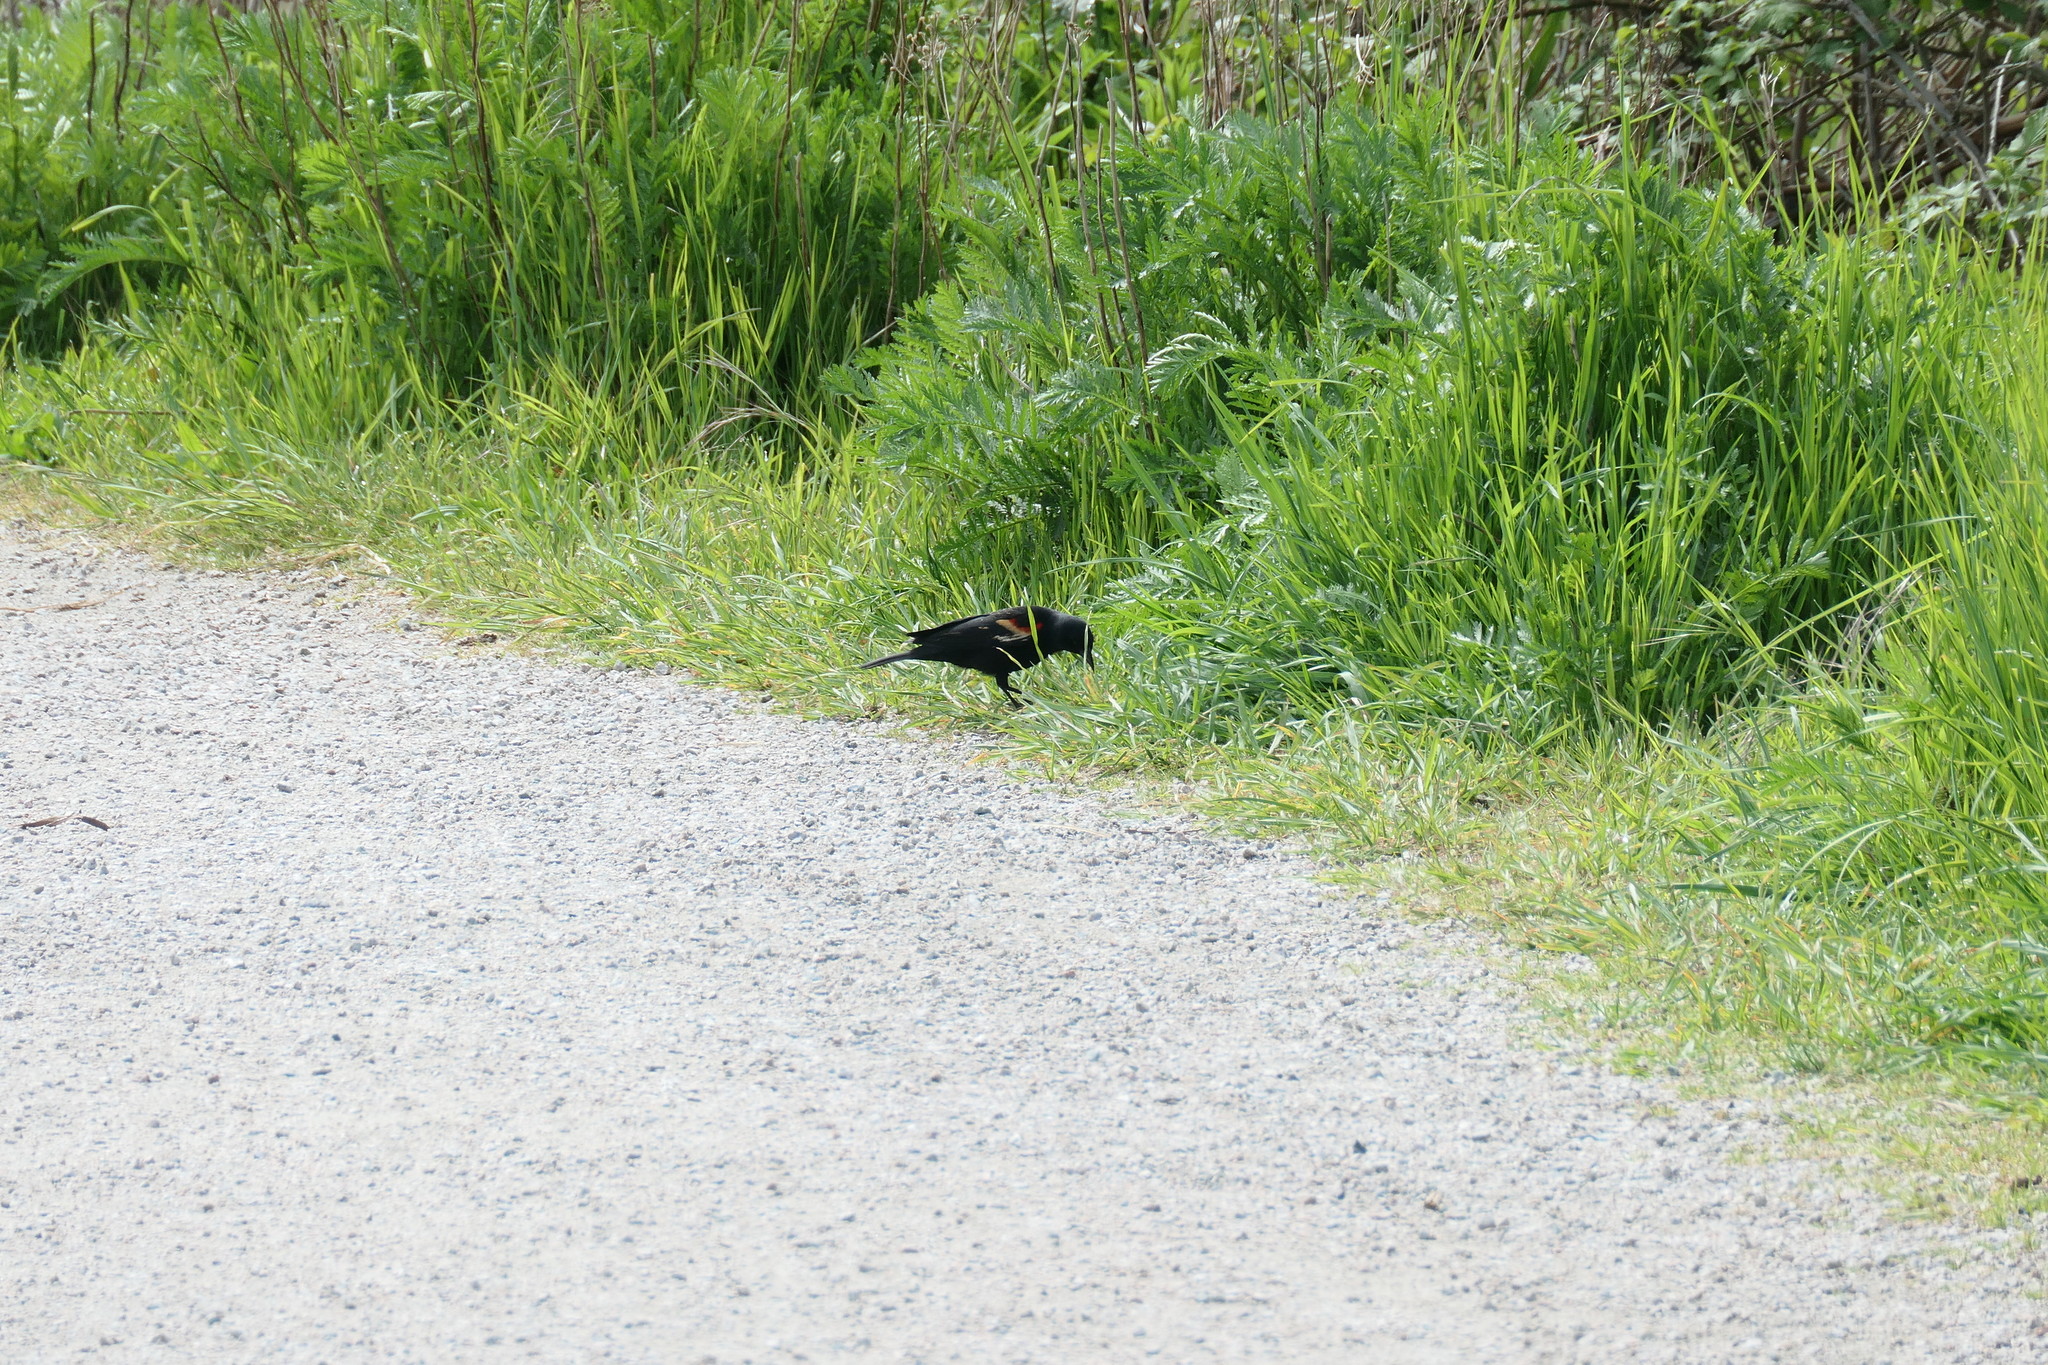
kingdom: Animalia
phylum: Chordata
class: Aves
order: Passeriformes
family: Icteridae
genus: Agelaius
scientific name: Agelaius phoeniceus
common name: Red-winged blackbird
